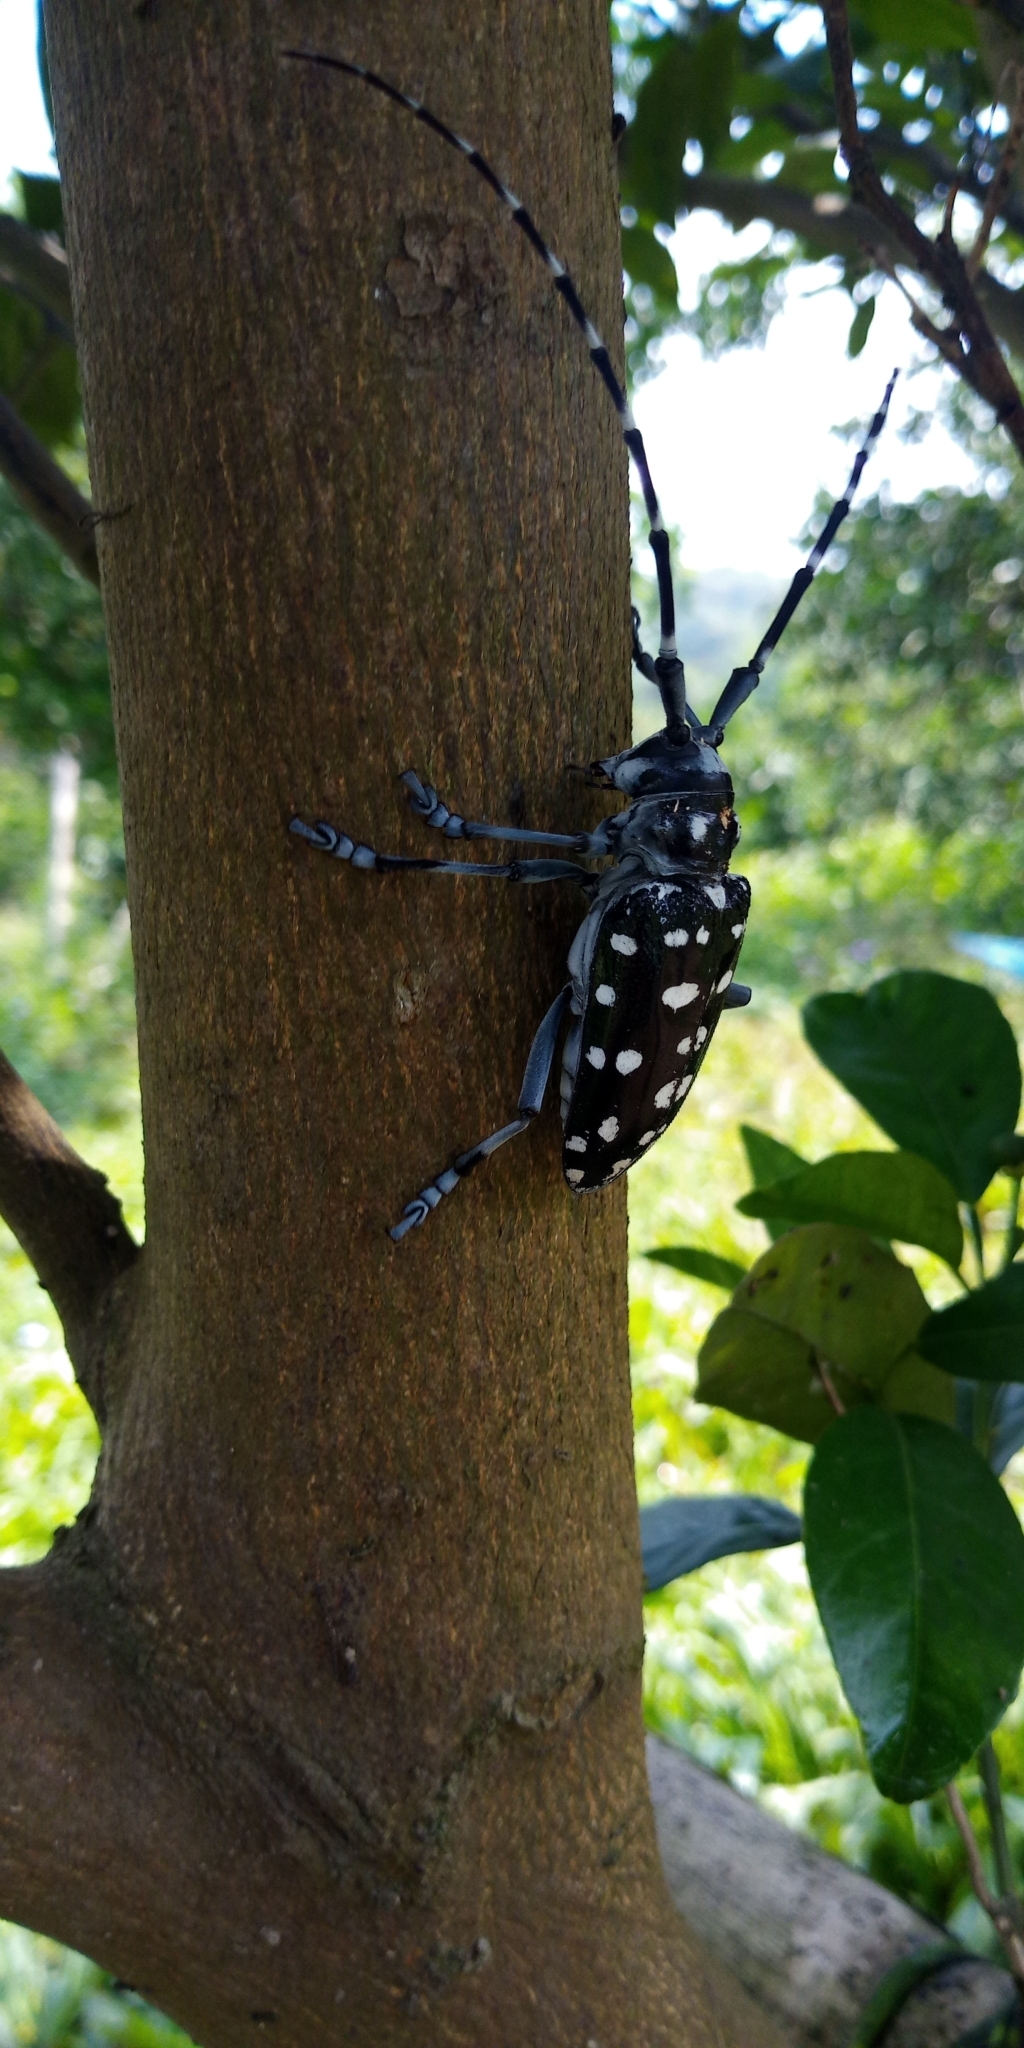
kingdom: Animalia
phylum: Arthropoda
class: Insecta
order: Coleoptera
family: Cerambycidae
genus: Anoplophora
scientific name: Anoplophora macularia
